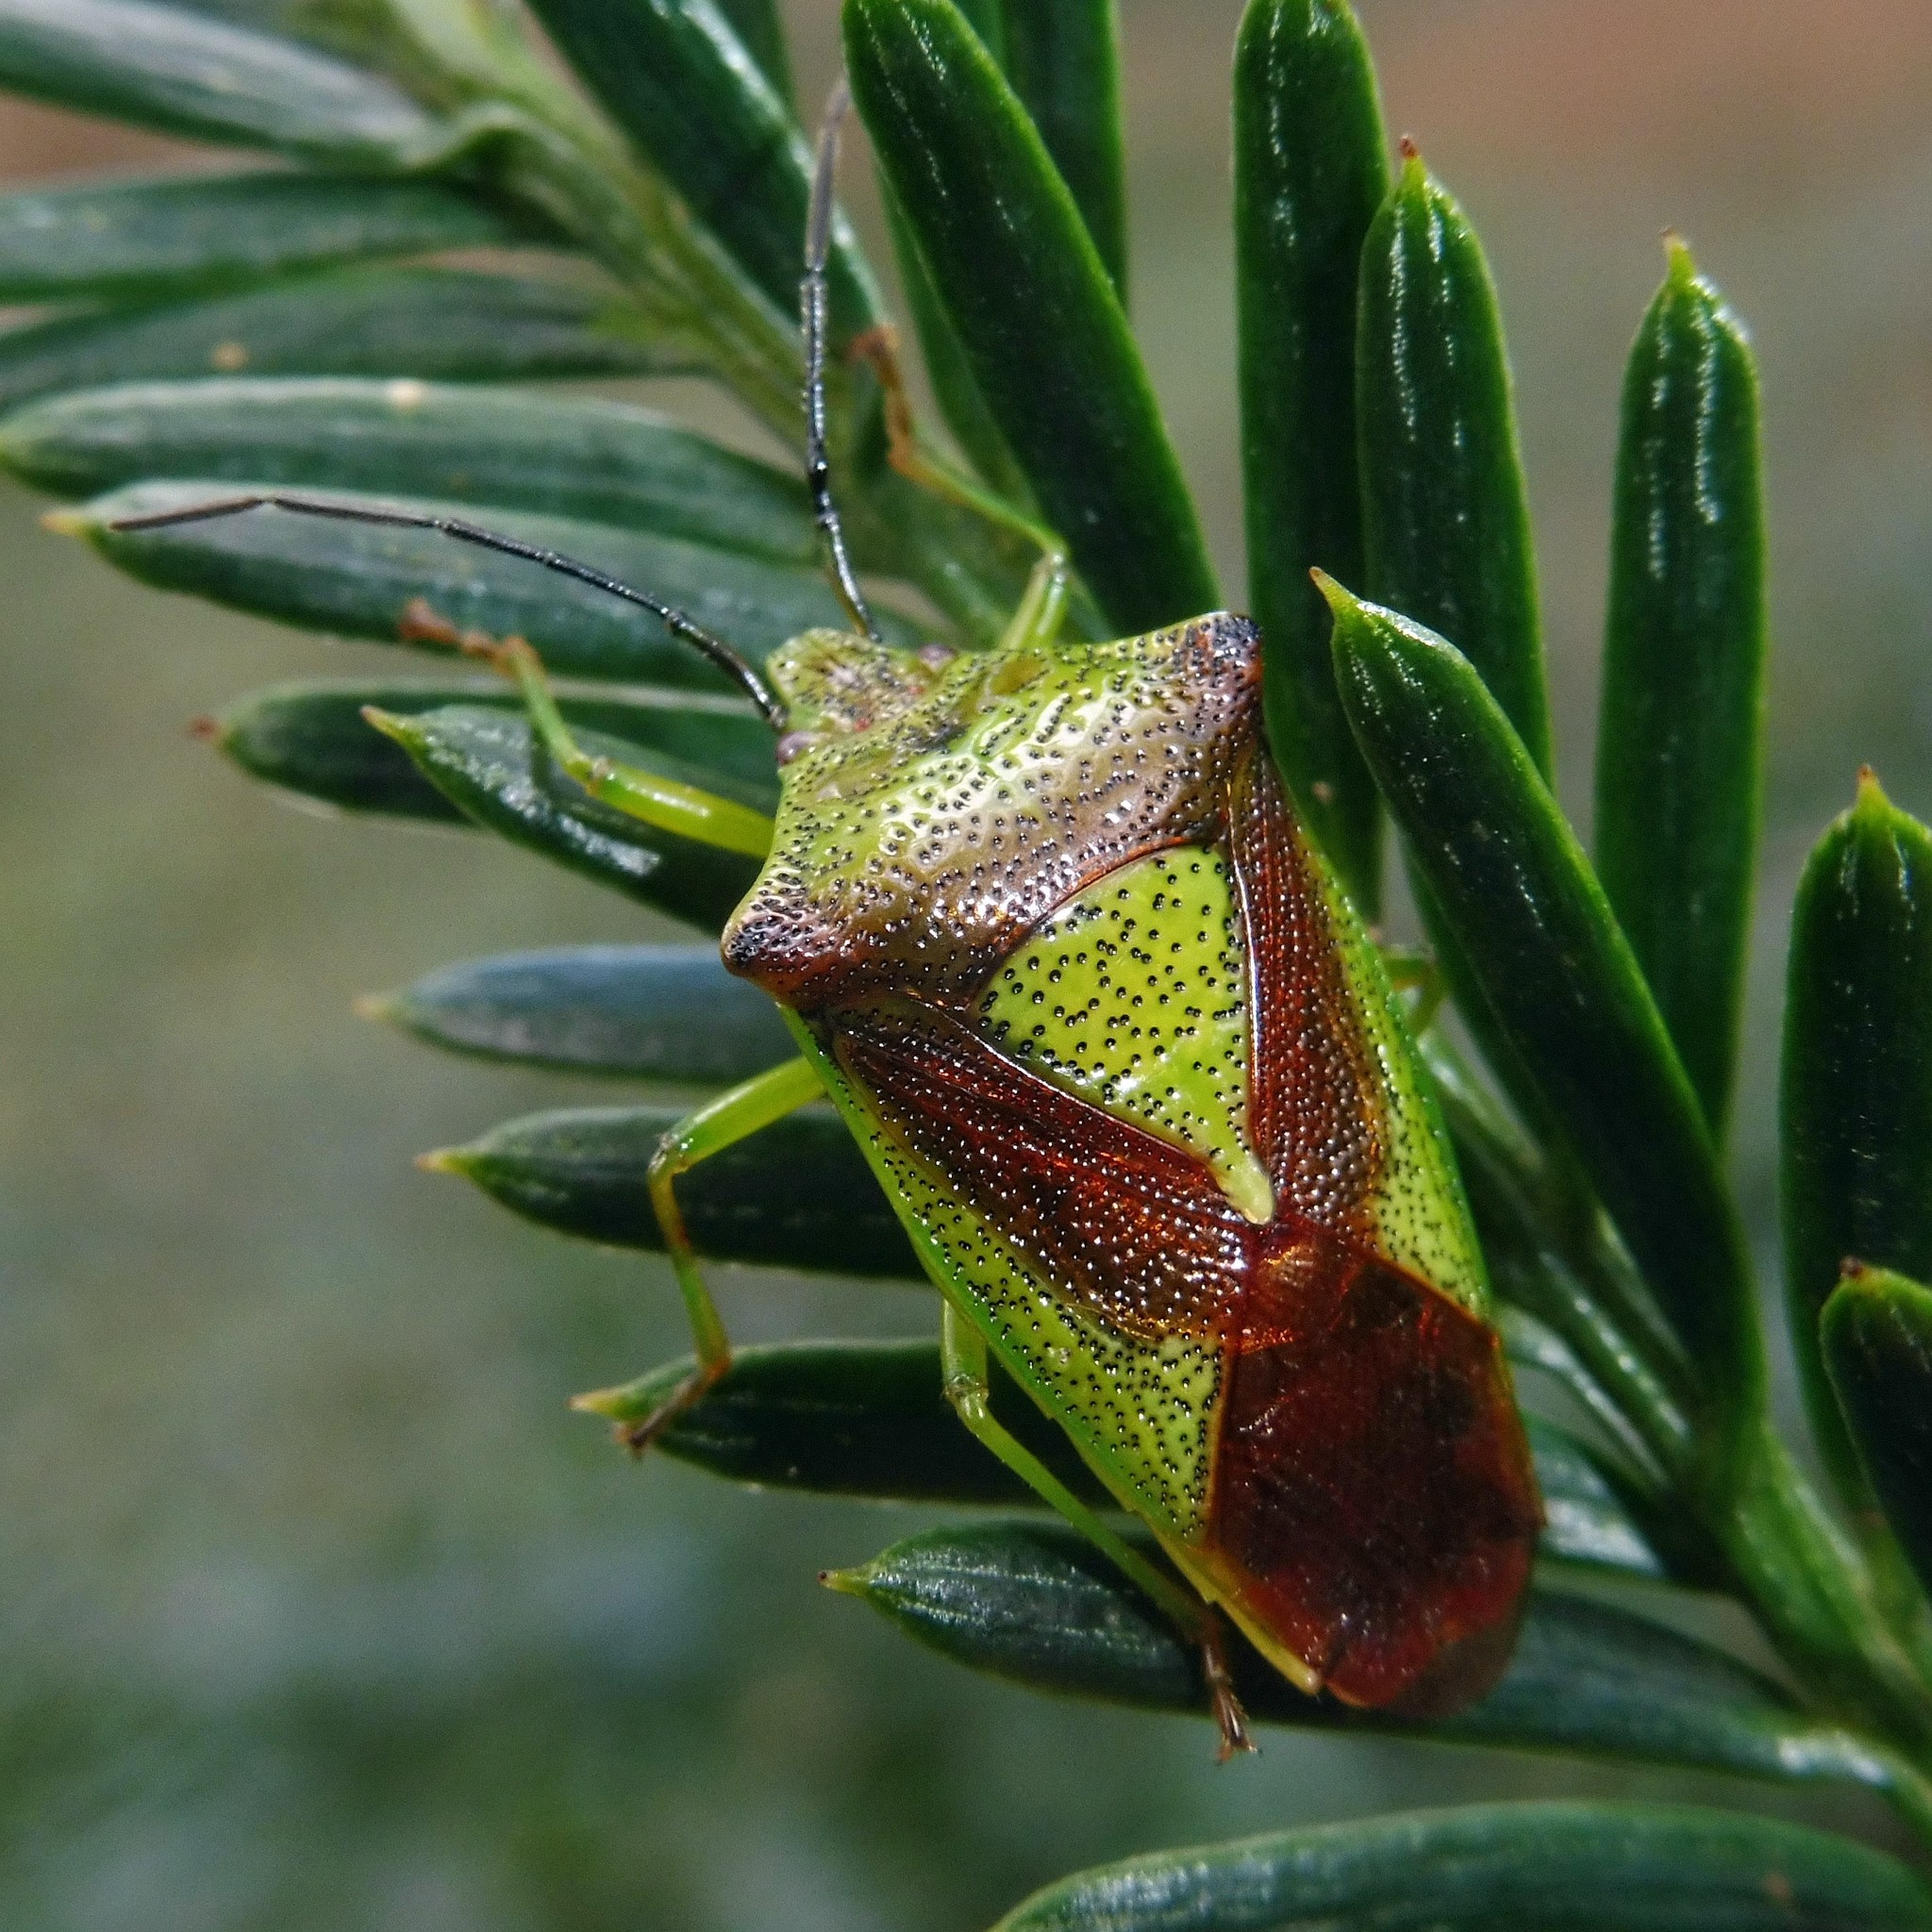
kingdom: Animalia
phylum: Arthropoda
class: Insecta
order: Hemiptera
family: Acanthosomatidae
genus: Acanthosoma
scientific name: Acanthosoma haemorrhoidale
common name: Hawthorn shieldbug
